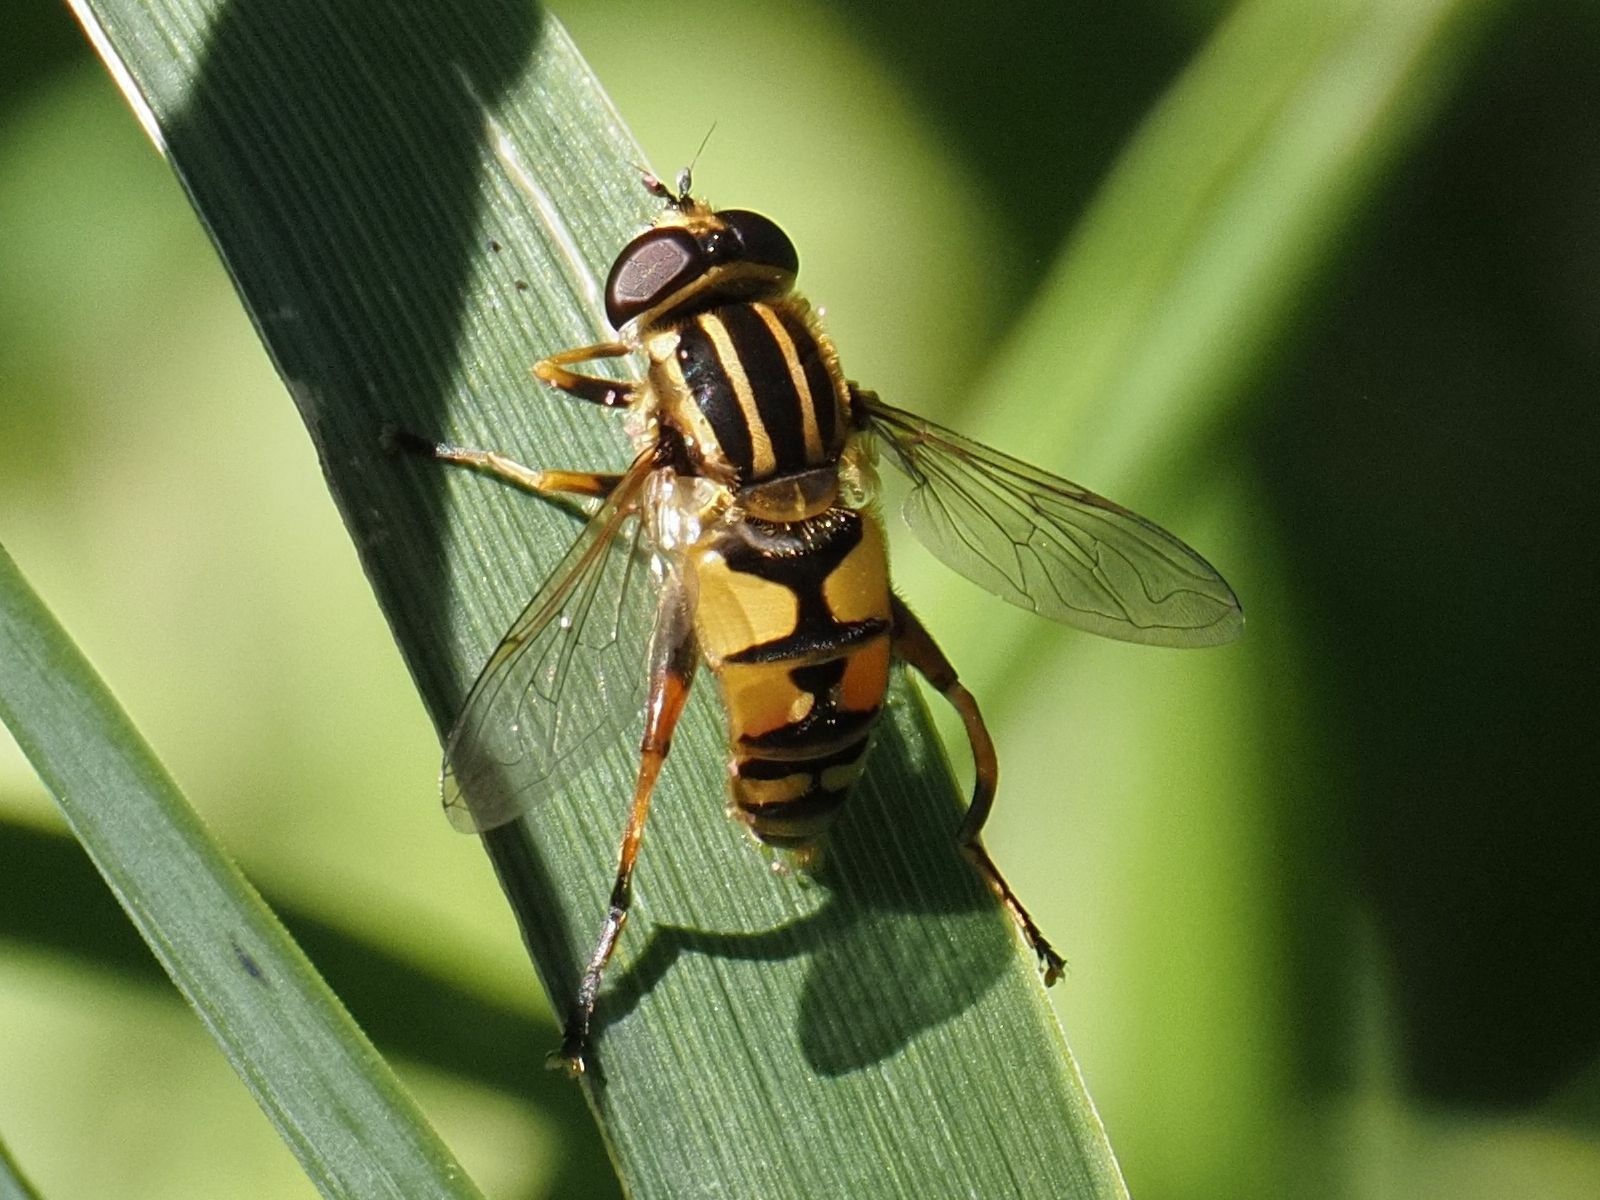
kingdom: Animalia
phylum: Arthropoda
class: Insecta
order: Diptera
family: Syrphidae
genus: Helophilus
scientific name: Helophilus pendulus
